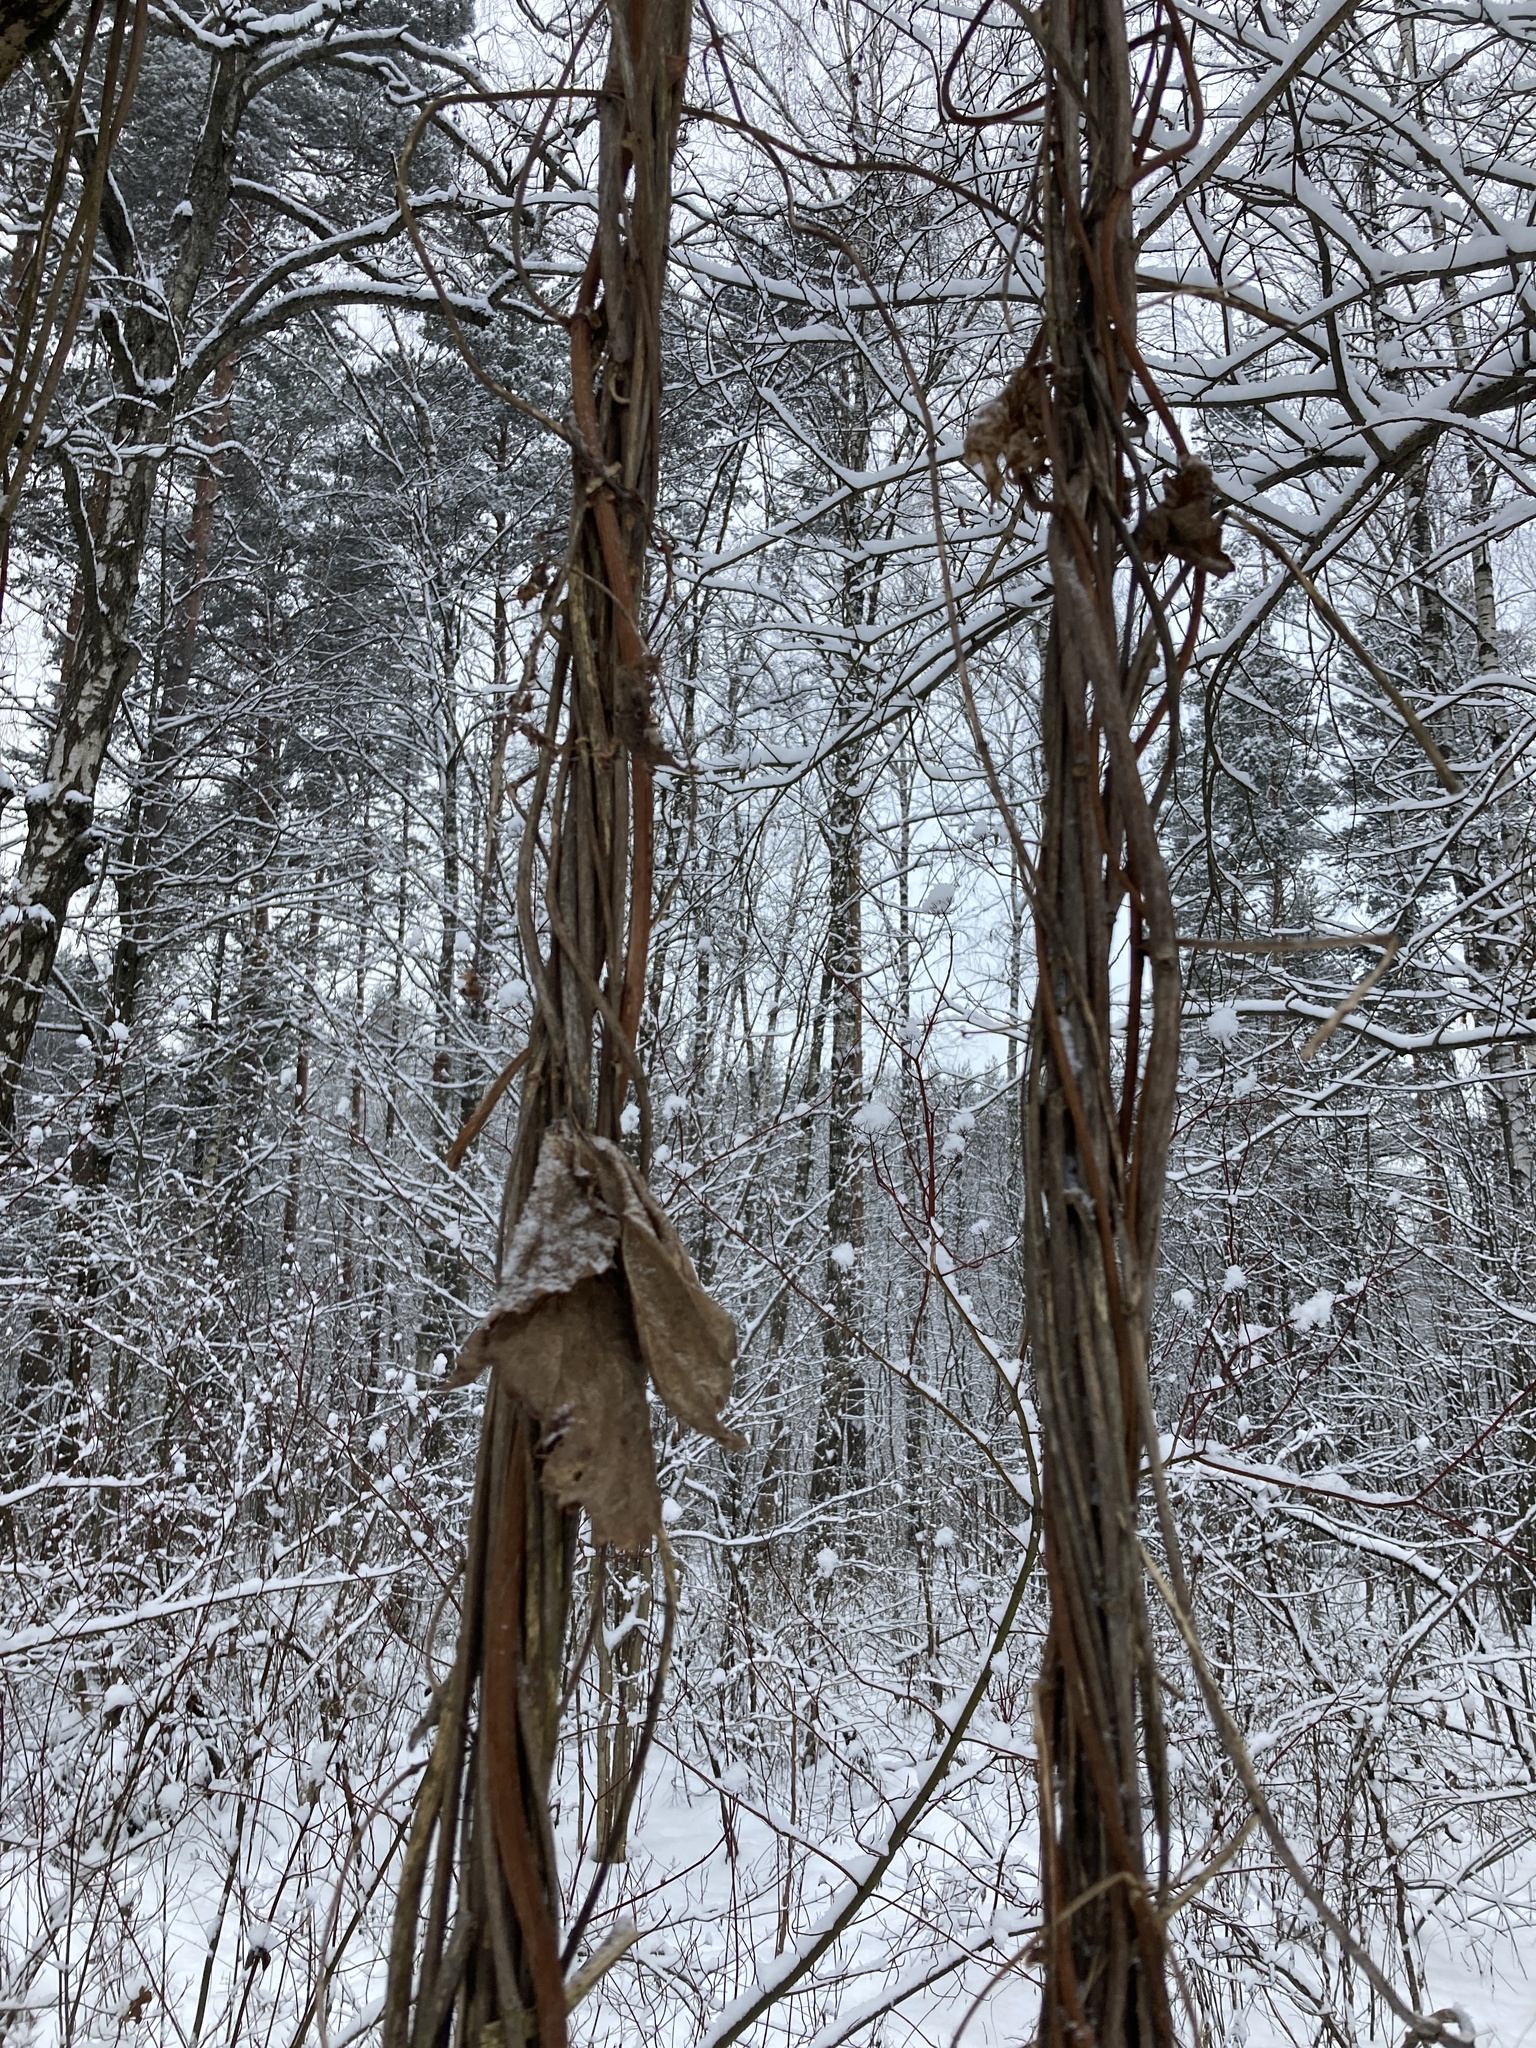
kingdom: Plantae
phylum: Tracheophyta
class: Magnoliopsida
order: Rosales
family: Cannabaceae
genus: Humulus
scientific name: Humulus lupulus
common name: Hop
